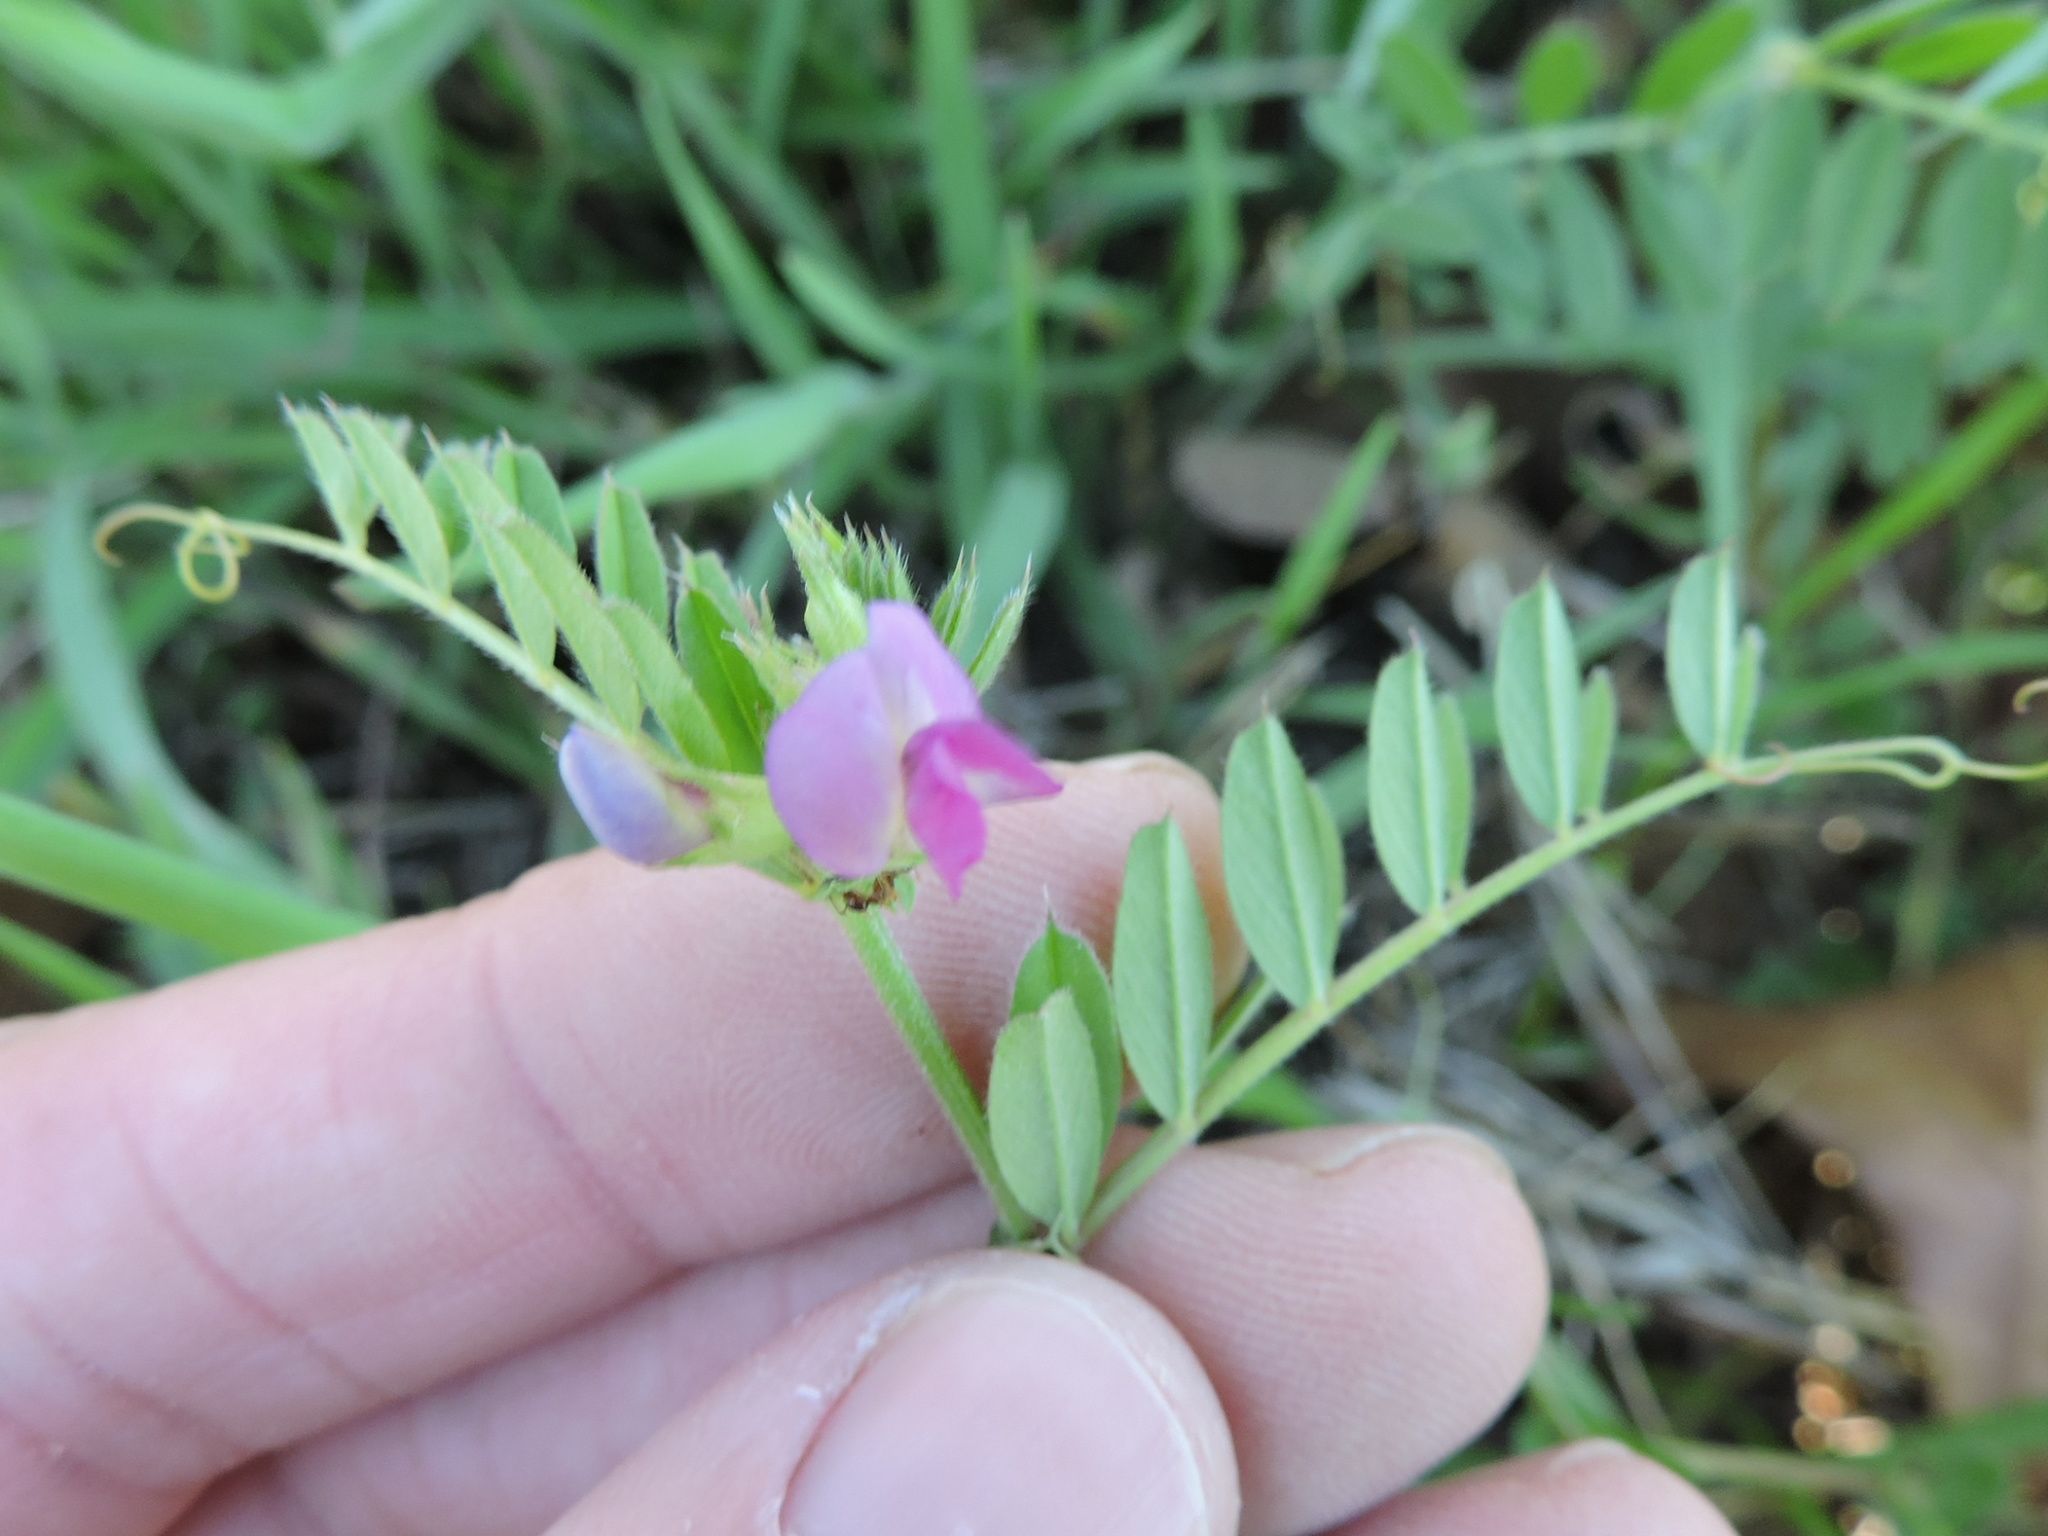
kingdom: Plantae
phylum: Tracheophyta
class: Magnoliopsida
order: Fabales
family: Fabaceae
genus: Vicia
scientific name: Vicia sativa
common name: Garden vetch
